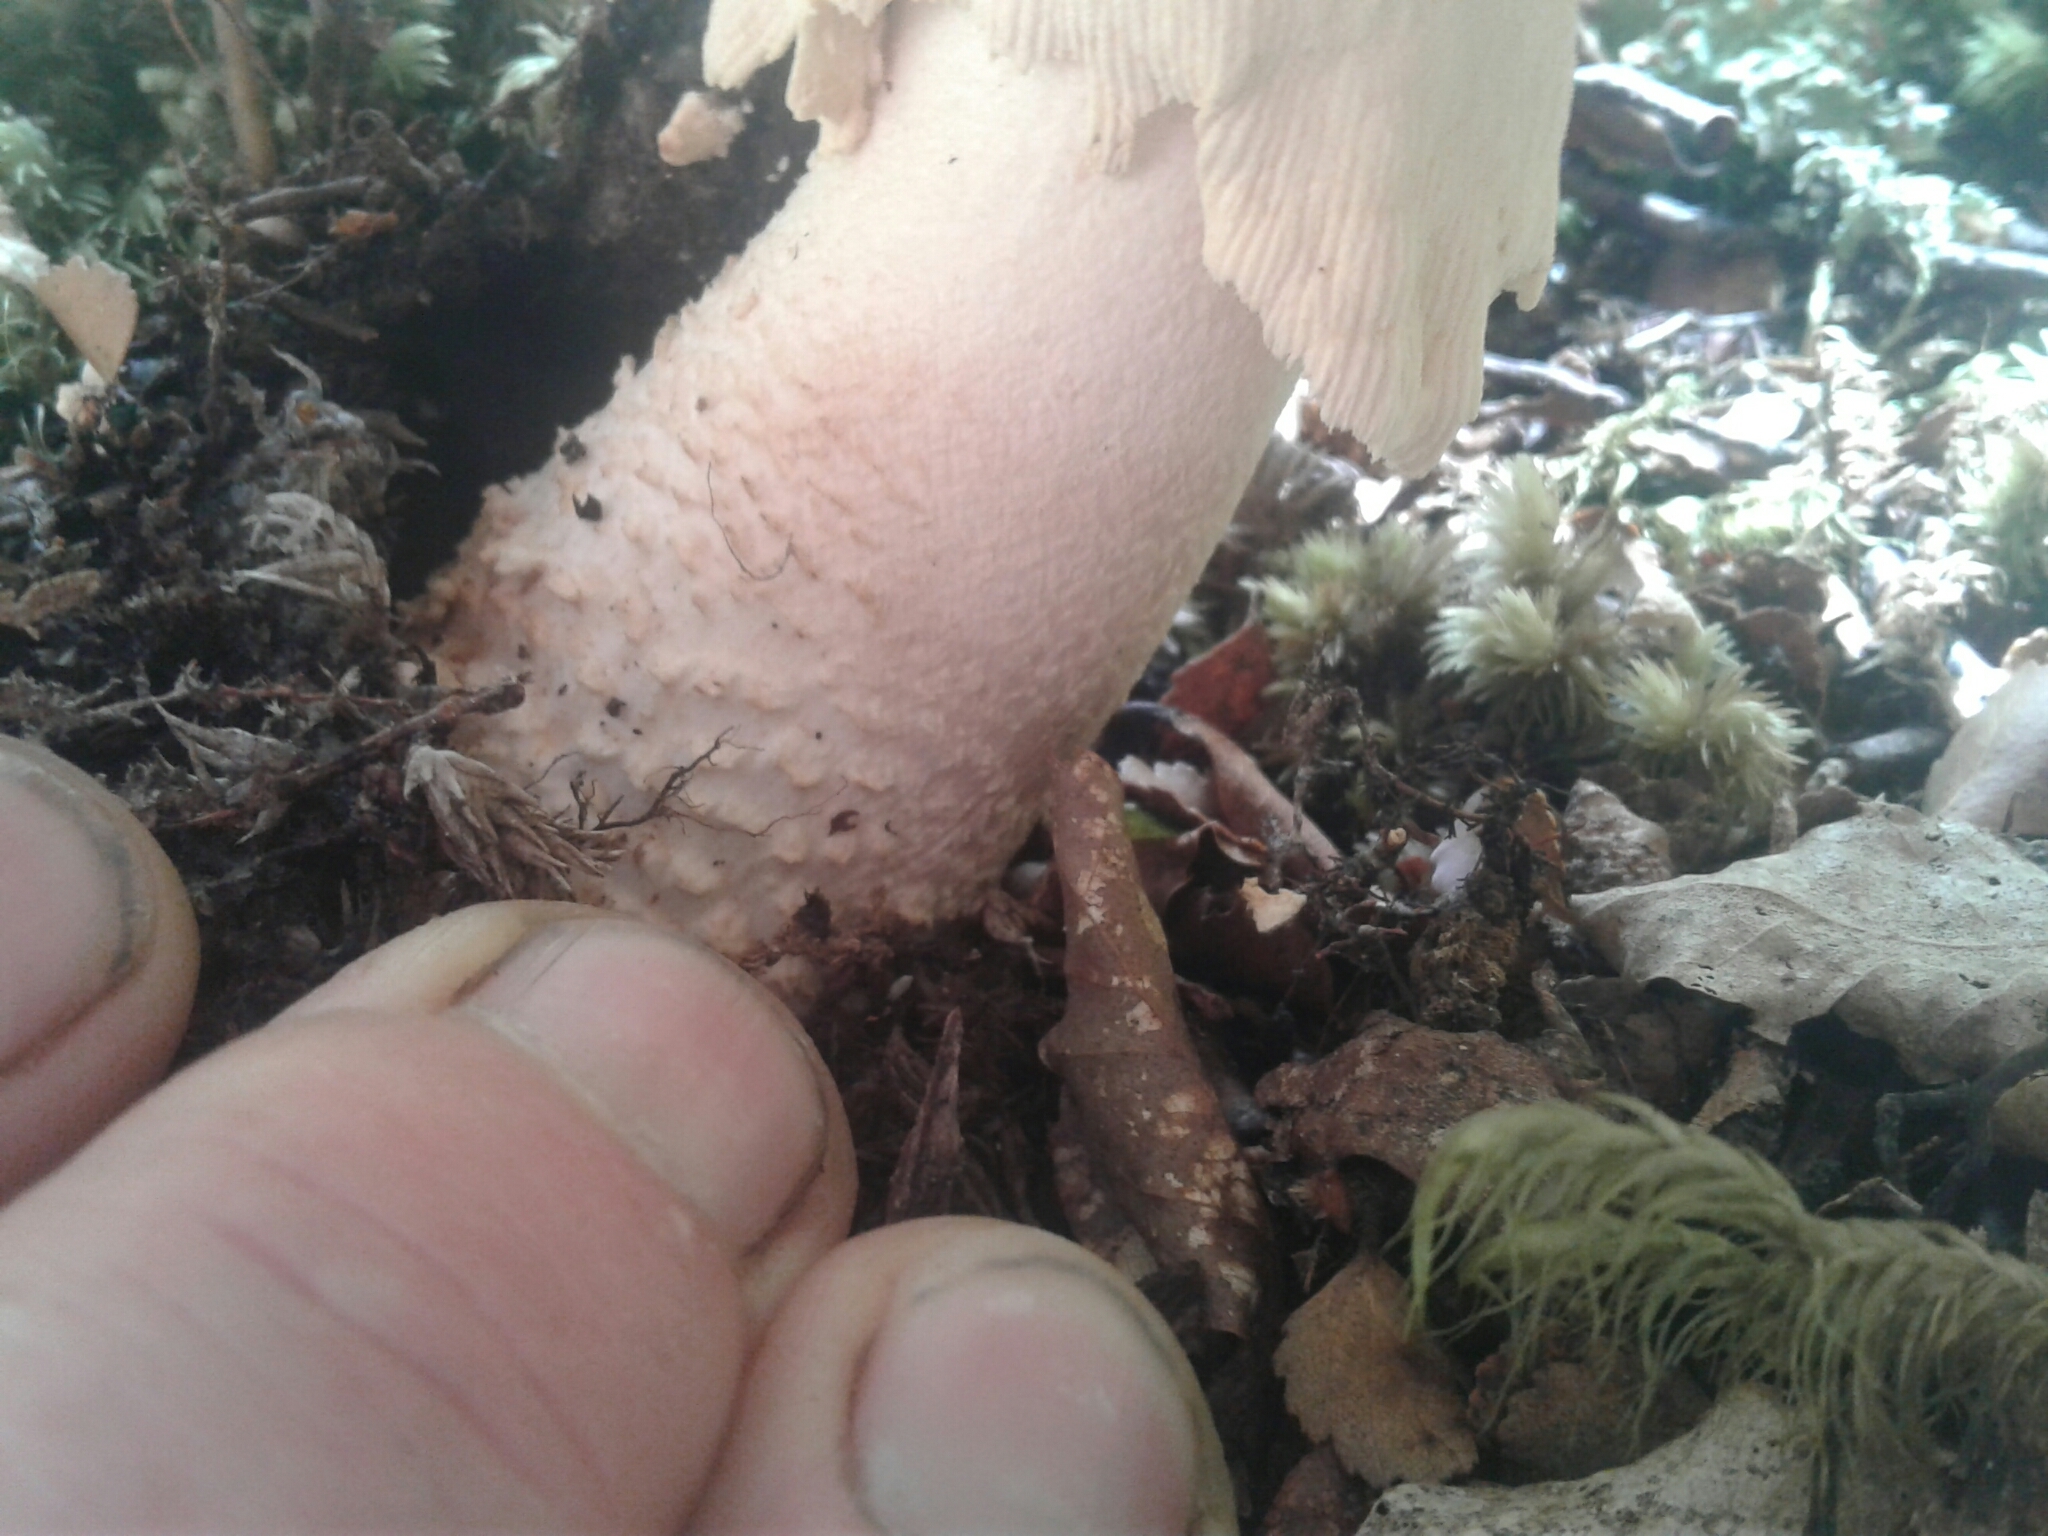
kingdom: Fungi
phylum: Basidiomycota
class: Agaricomycetes
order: Agaricales
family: Amanitaceae
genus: Amanita
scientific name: Amanita pareparina
